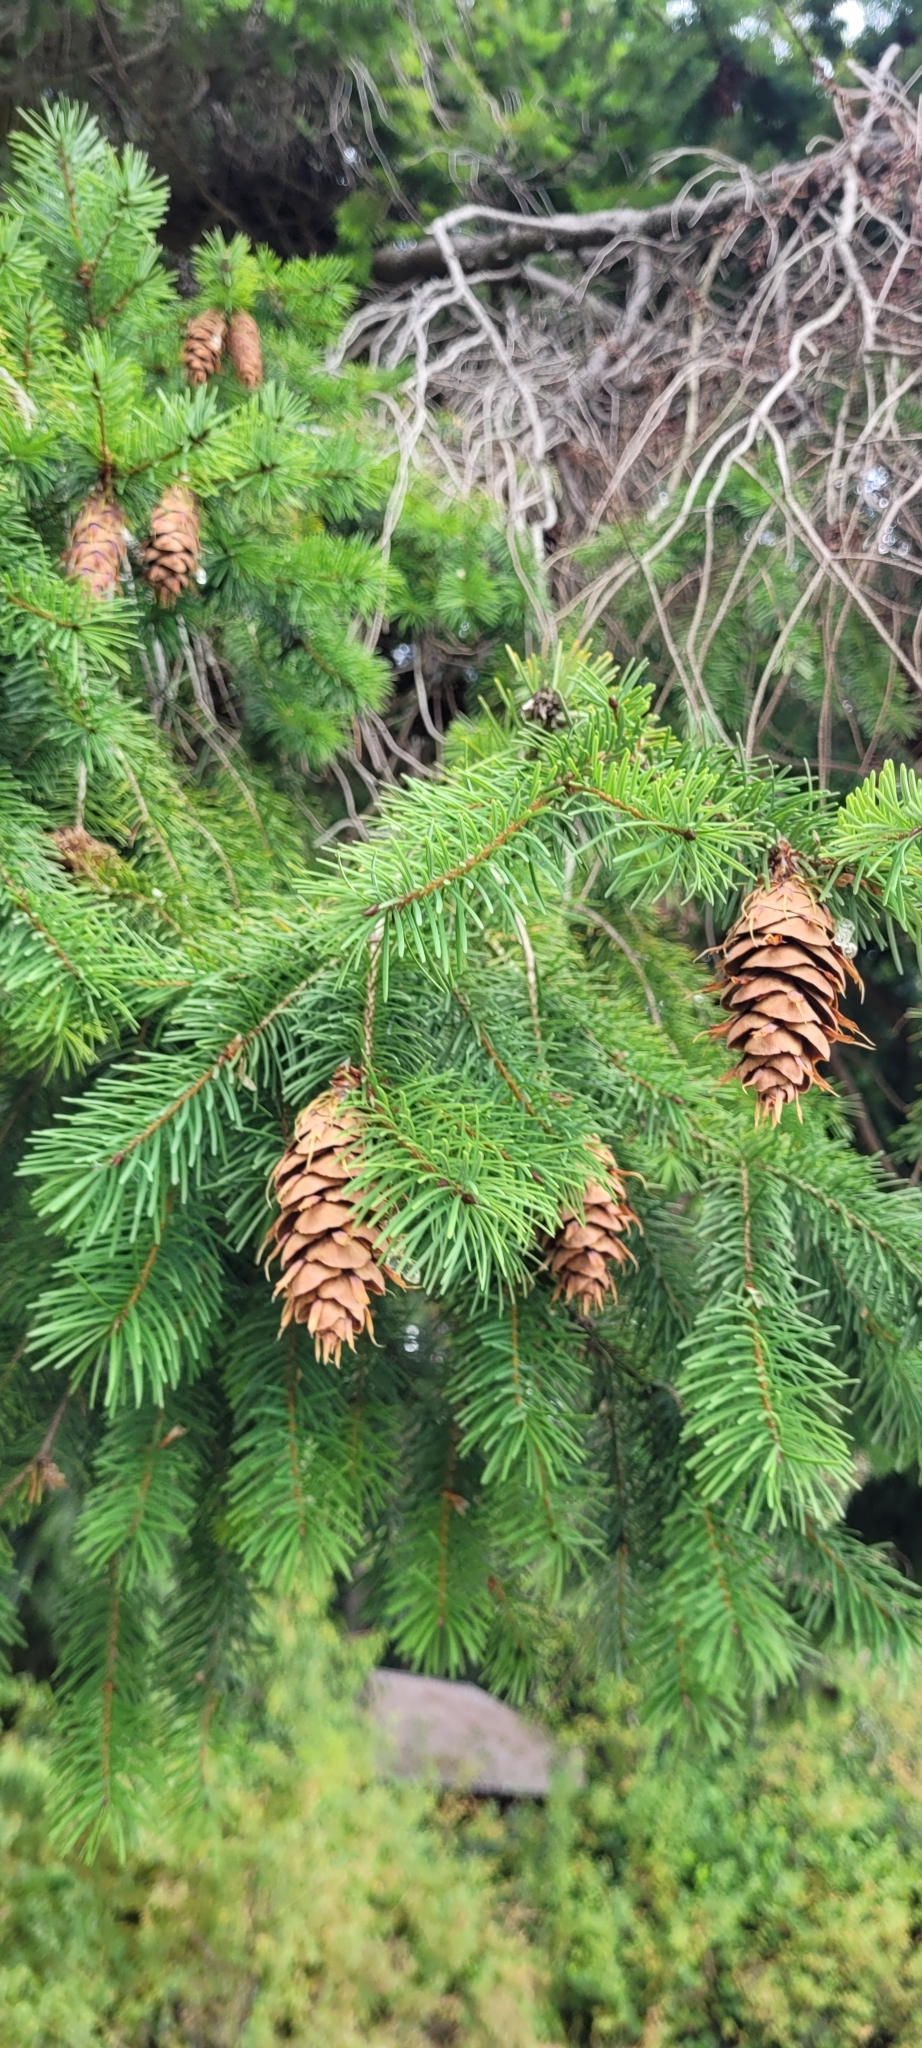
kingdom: Plantae
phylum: Tracheophyta
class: Pinopsida
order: Pinales
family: Pinaceae
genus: Pseudotsuga
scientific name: Pseudotsuga menziesii
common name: Douglas fir
